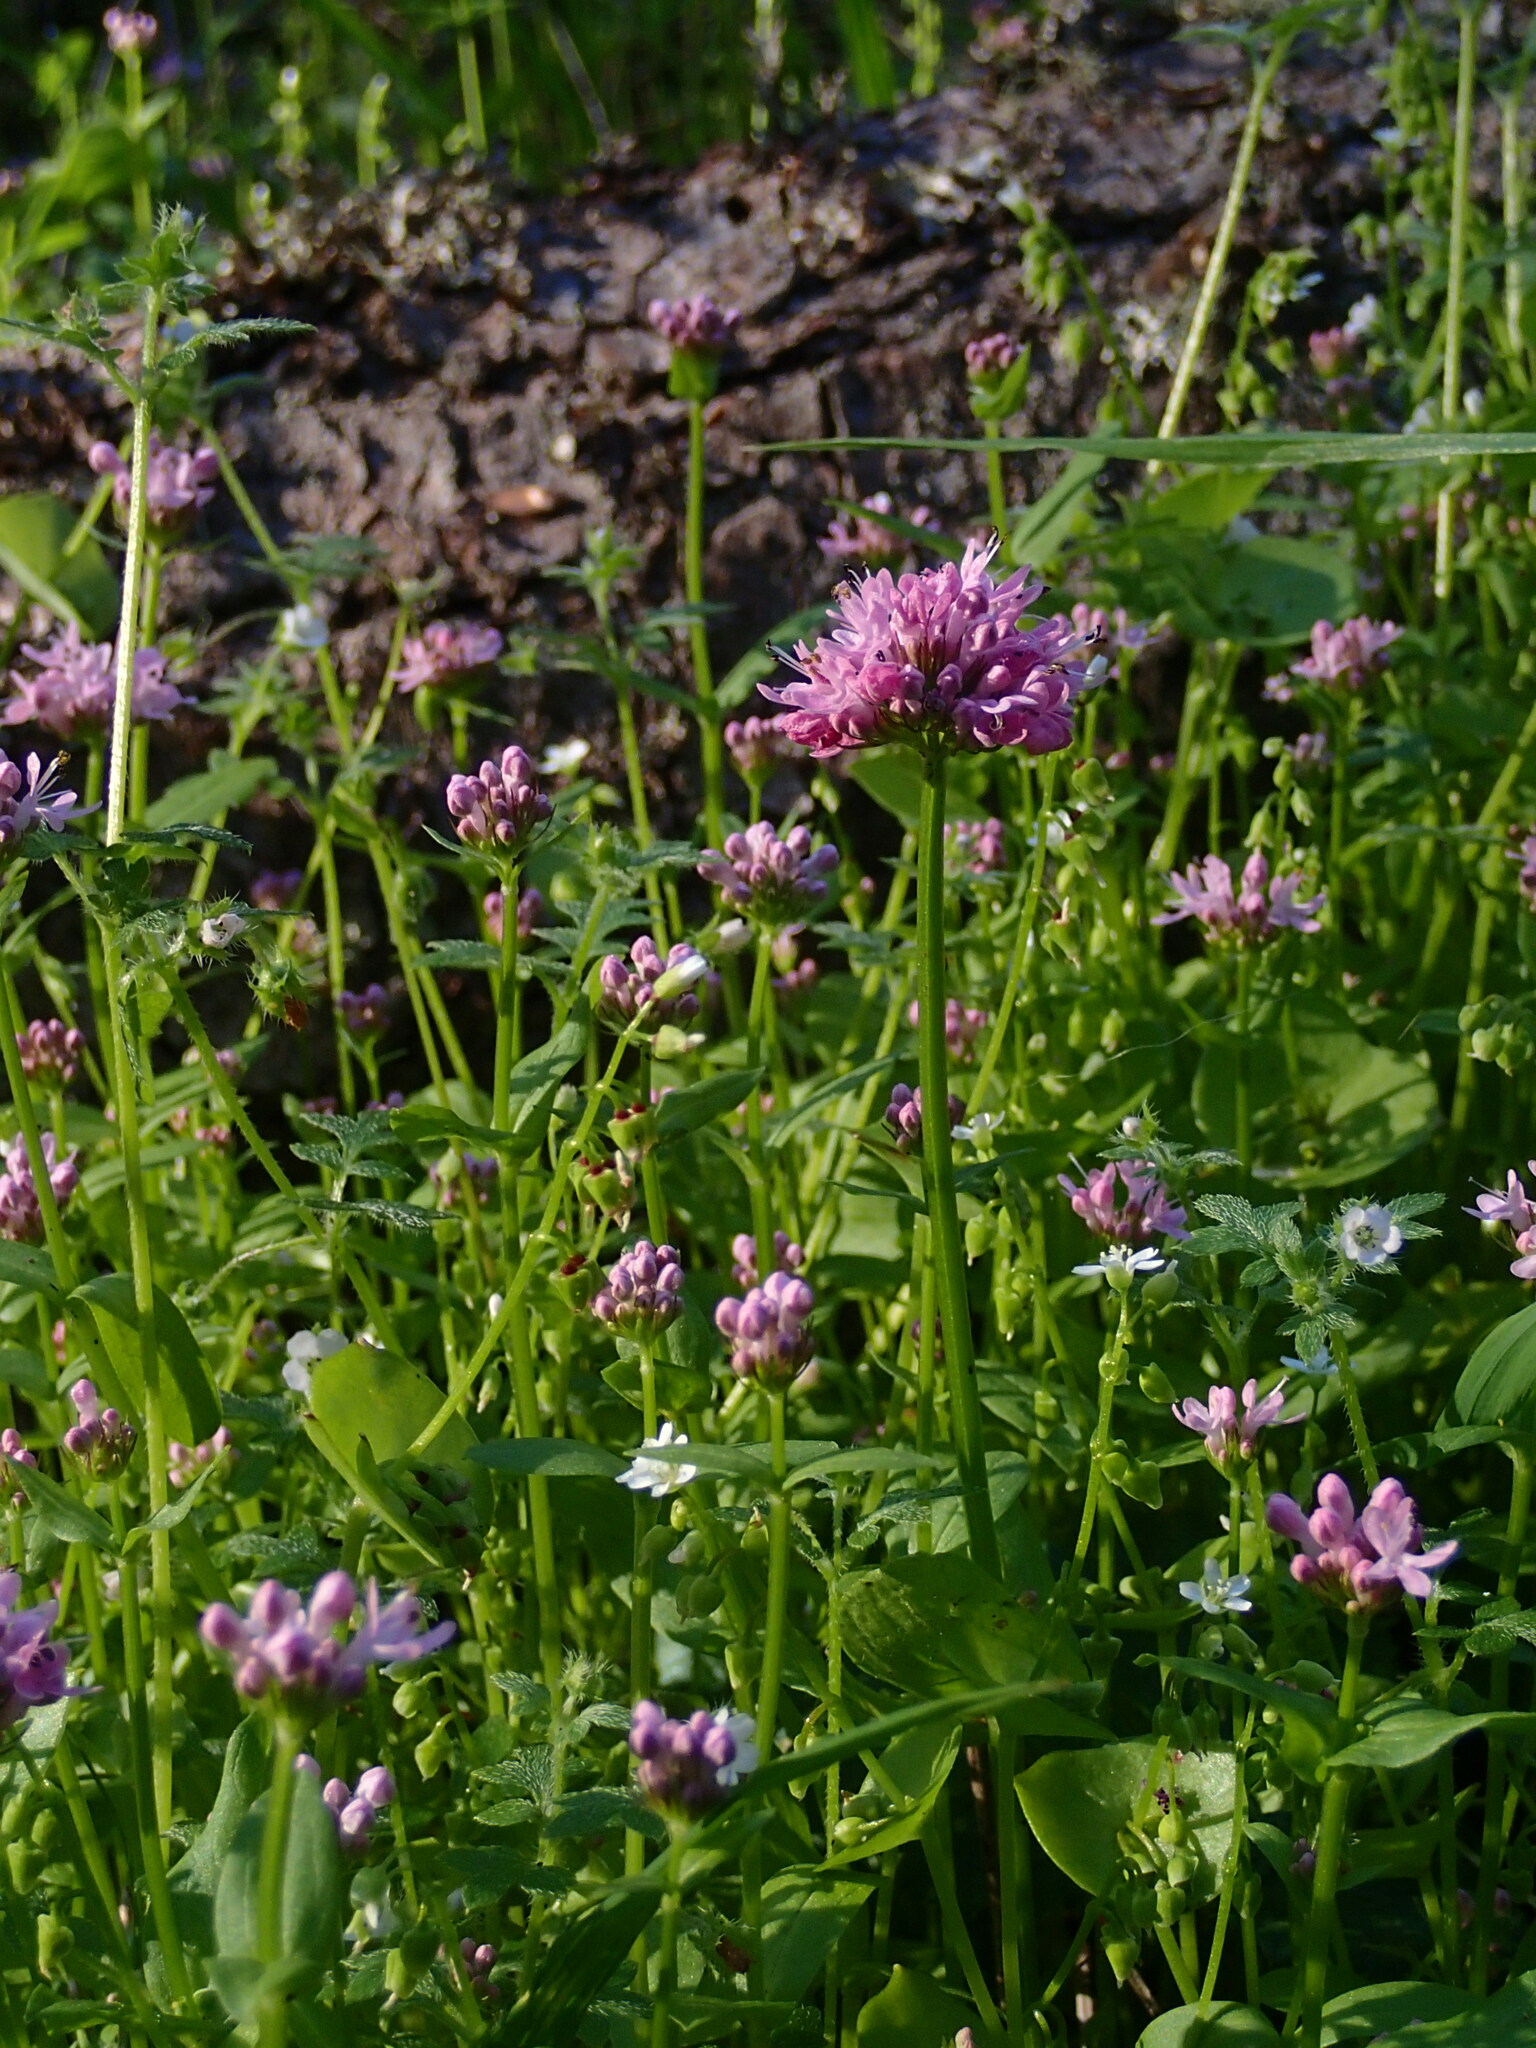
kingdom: Plantae
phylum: Tracheophyta
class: Magnoliopsida
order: Dipsacales
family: Caprifoliaceae
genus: Plectritis
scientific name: Plectritis congesta
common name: Pink plectritis
